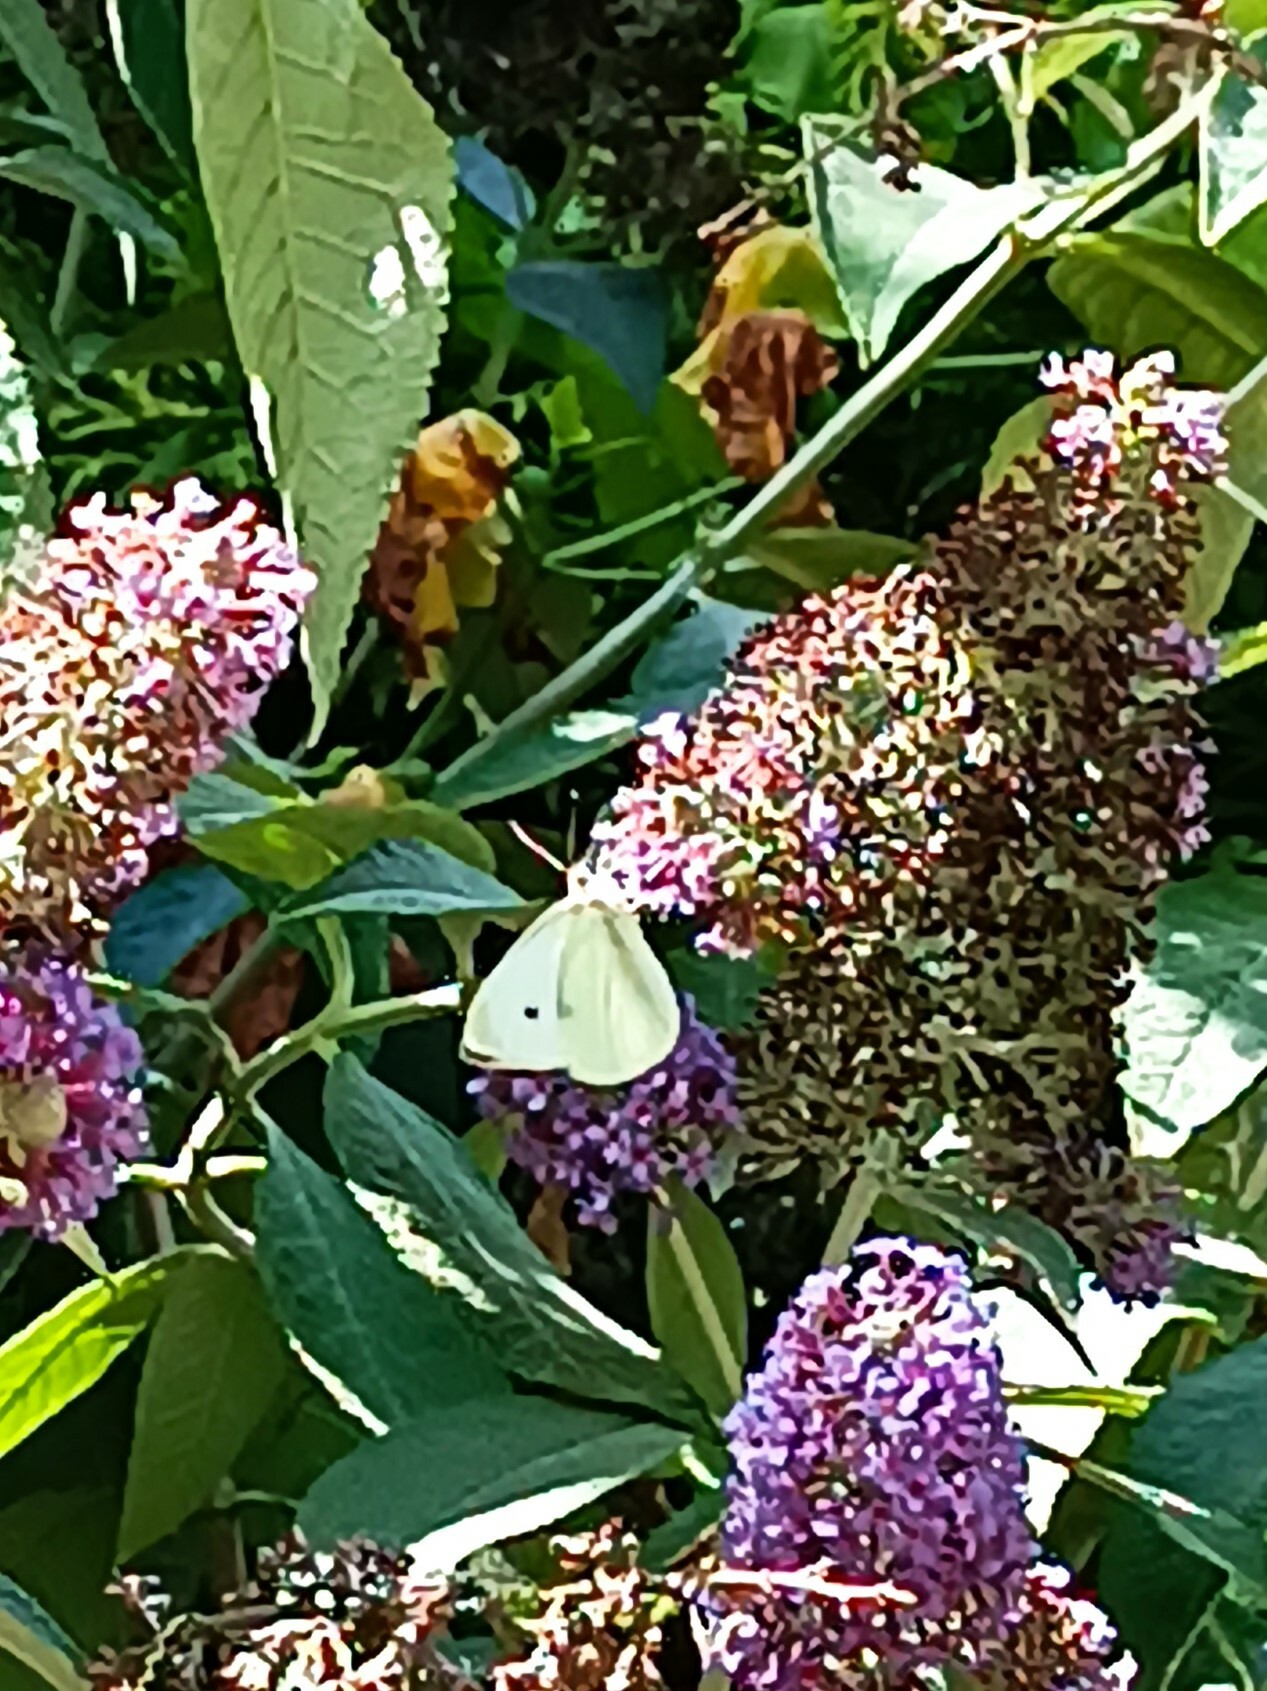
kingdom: Animalia
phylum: Arthropoda
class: Insecta
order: Lepidoptera
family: Pieridae
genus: Pieris
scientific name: Pieris rapae
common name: Small white
